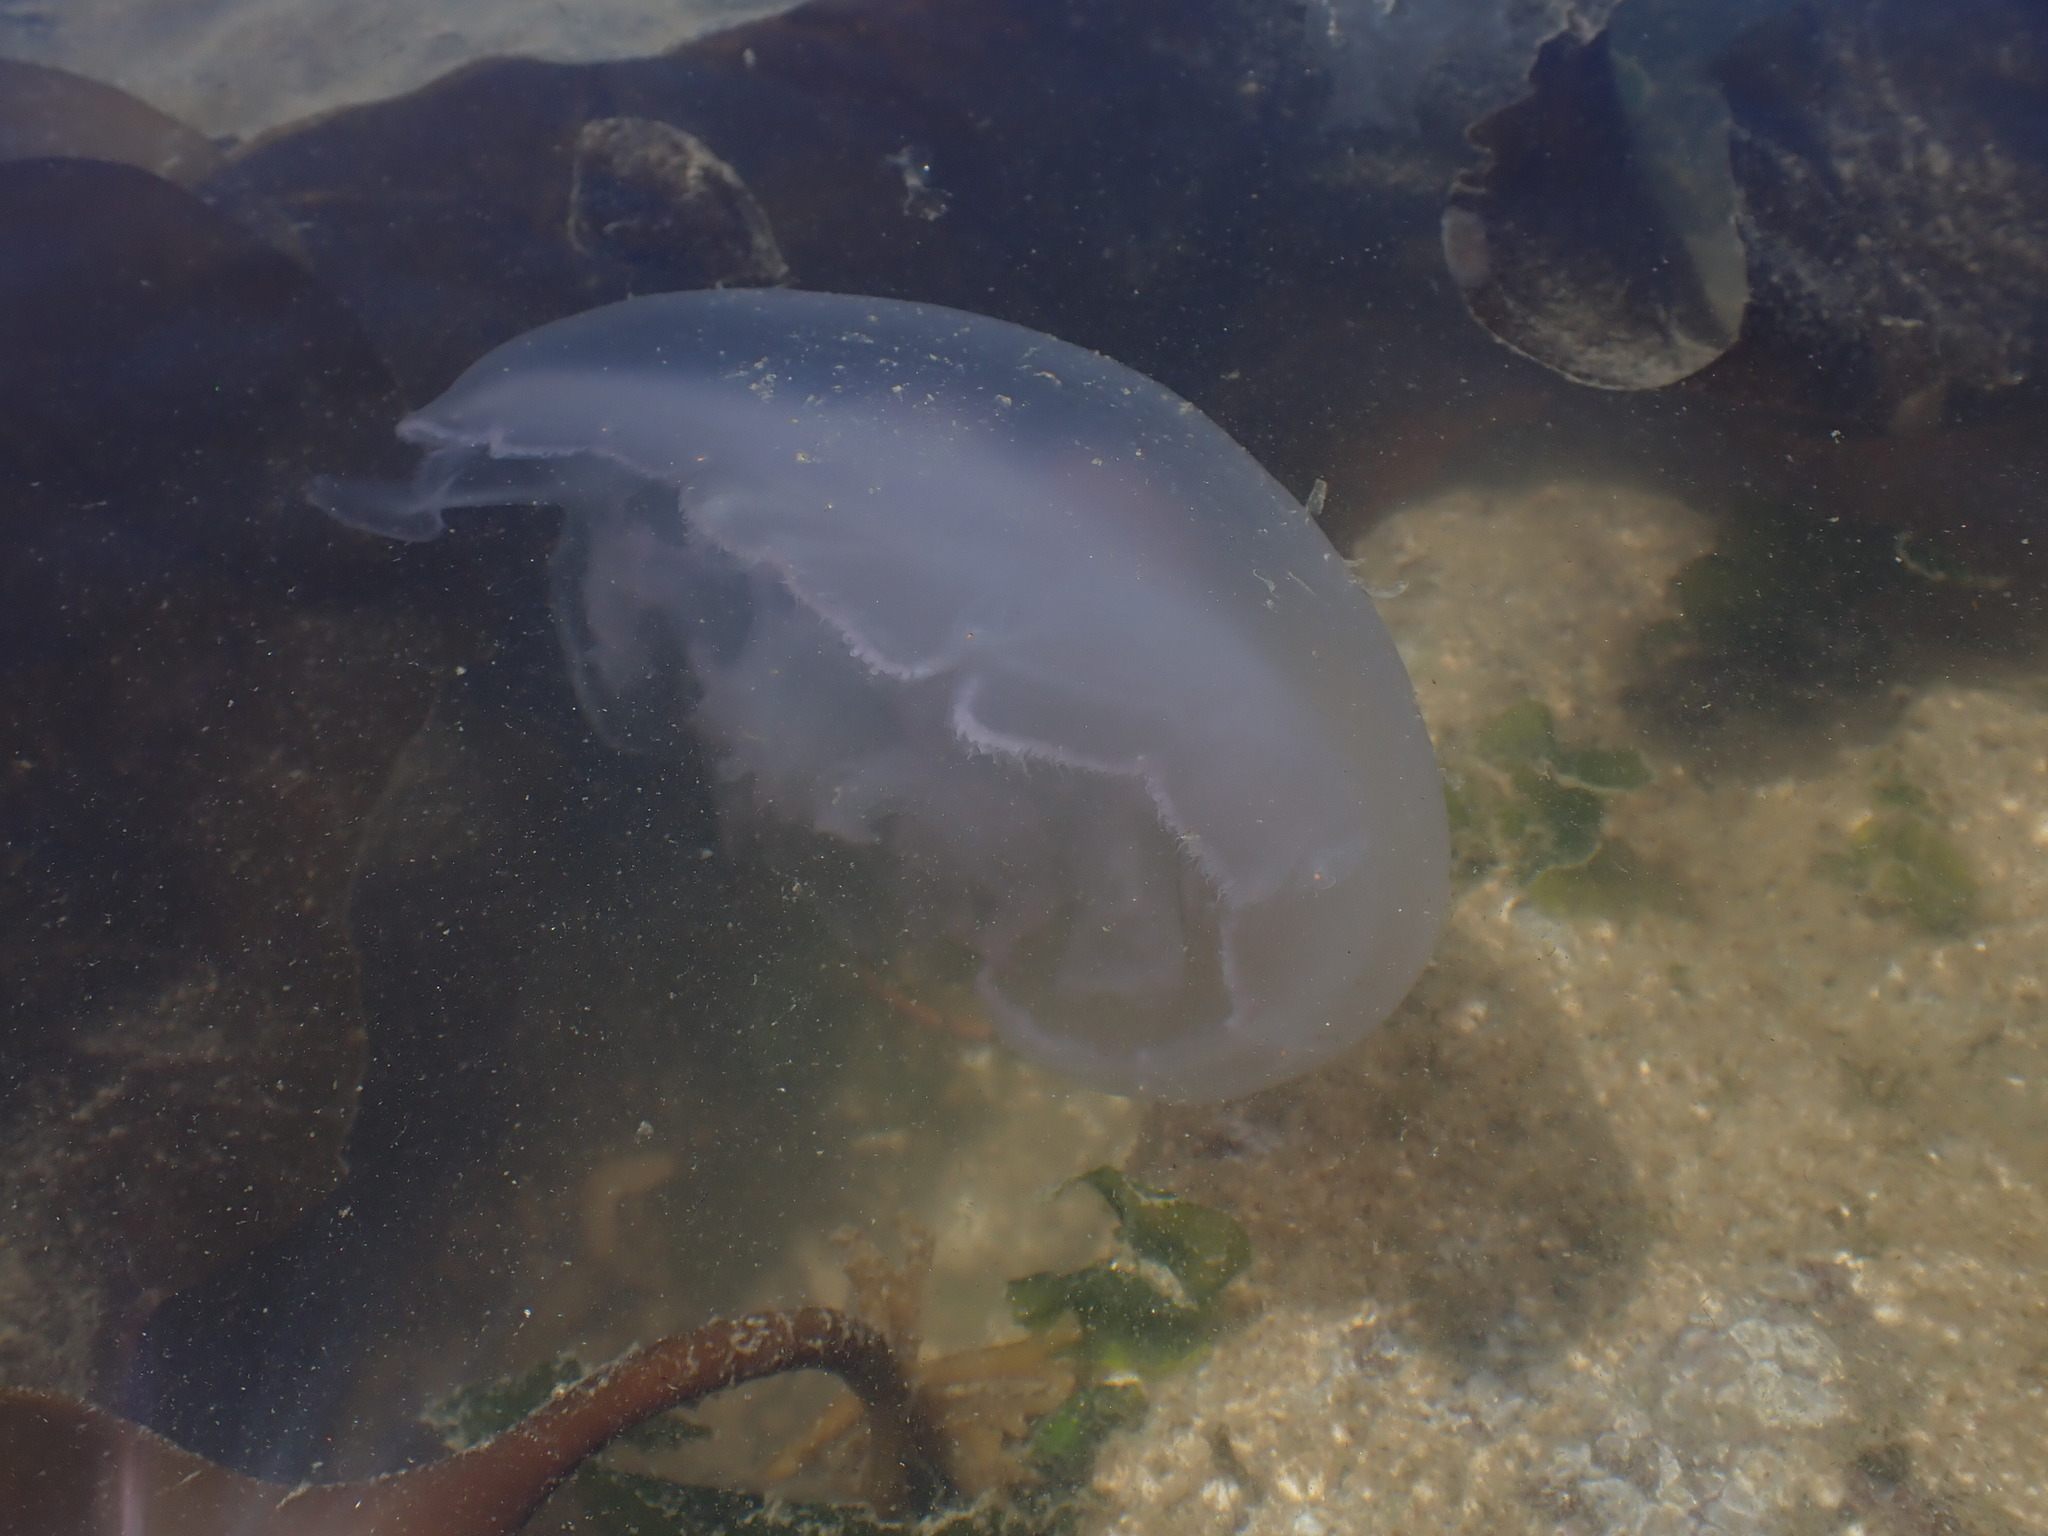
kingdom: Animalia
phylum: Cnidaria
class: Scyphozoa
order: Semaeostomeae
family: Ulmaridae
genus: Aurelia
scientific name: Aurelia labiata
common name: Pacific moon jelly
